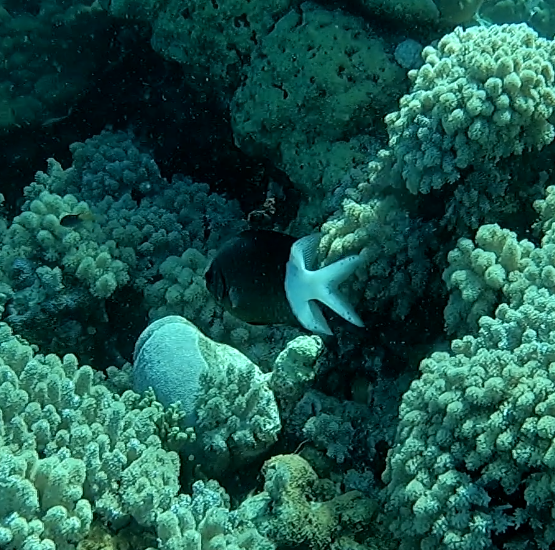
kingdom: Animalia
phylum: Chordata
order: Perciformes
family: Pomacentridae
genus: Acanthochromis
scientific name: Acanthochromis polyacanthus
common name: Spiny chromis
